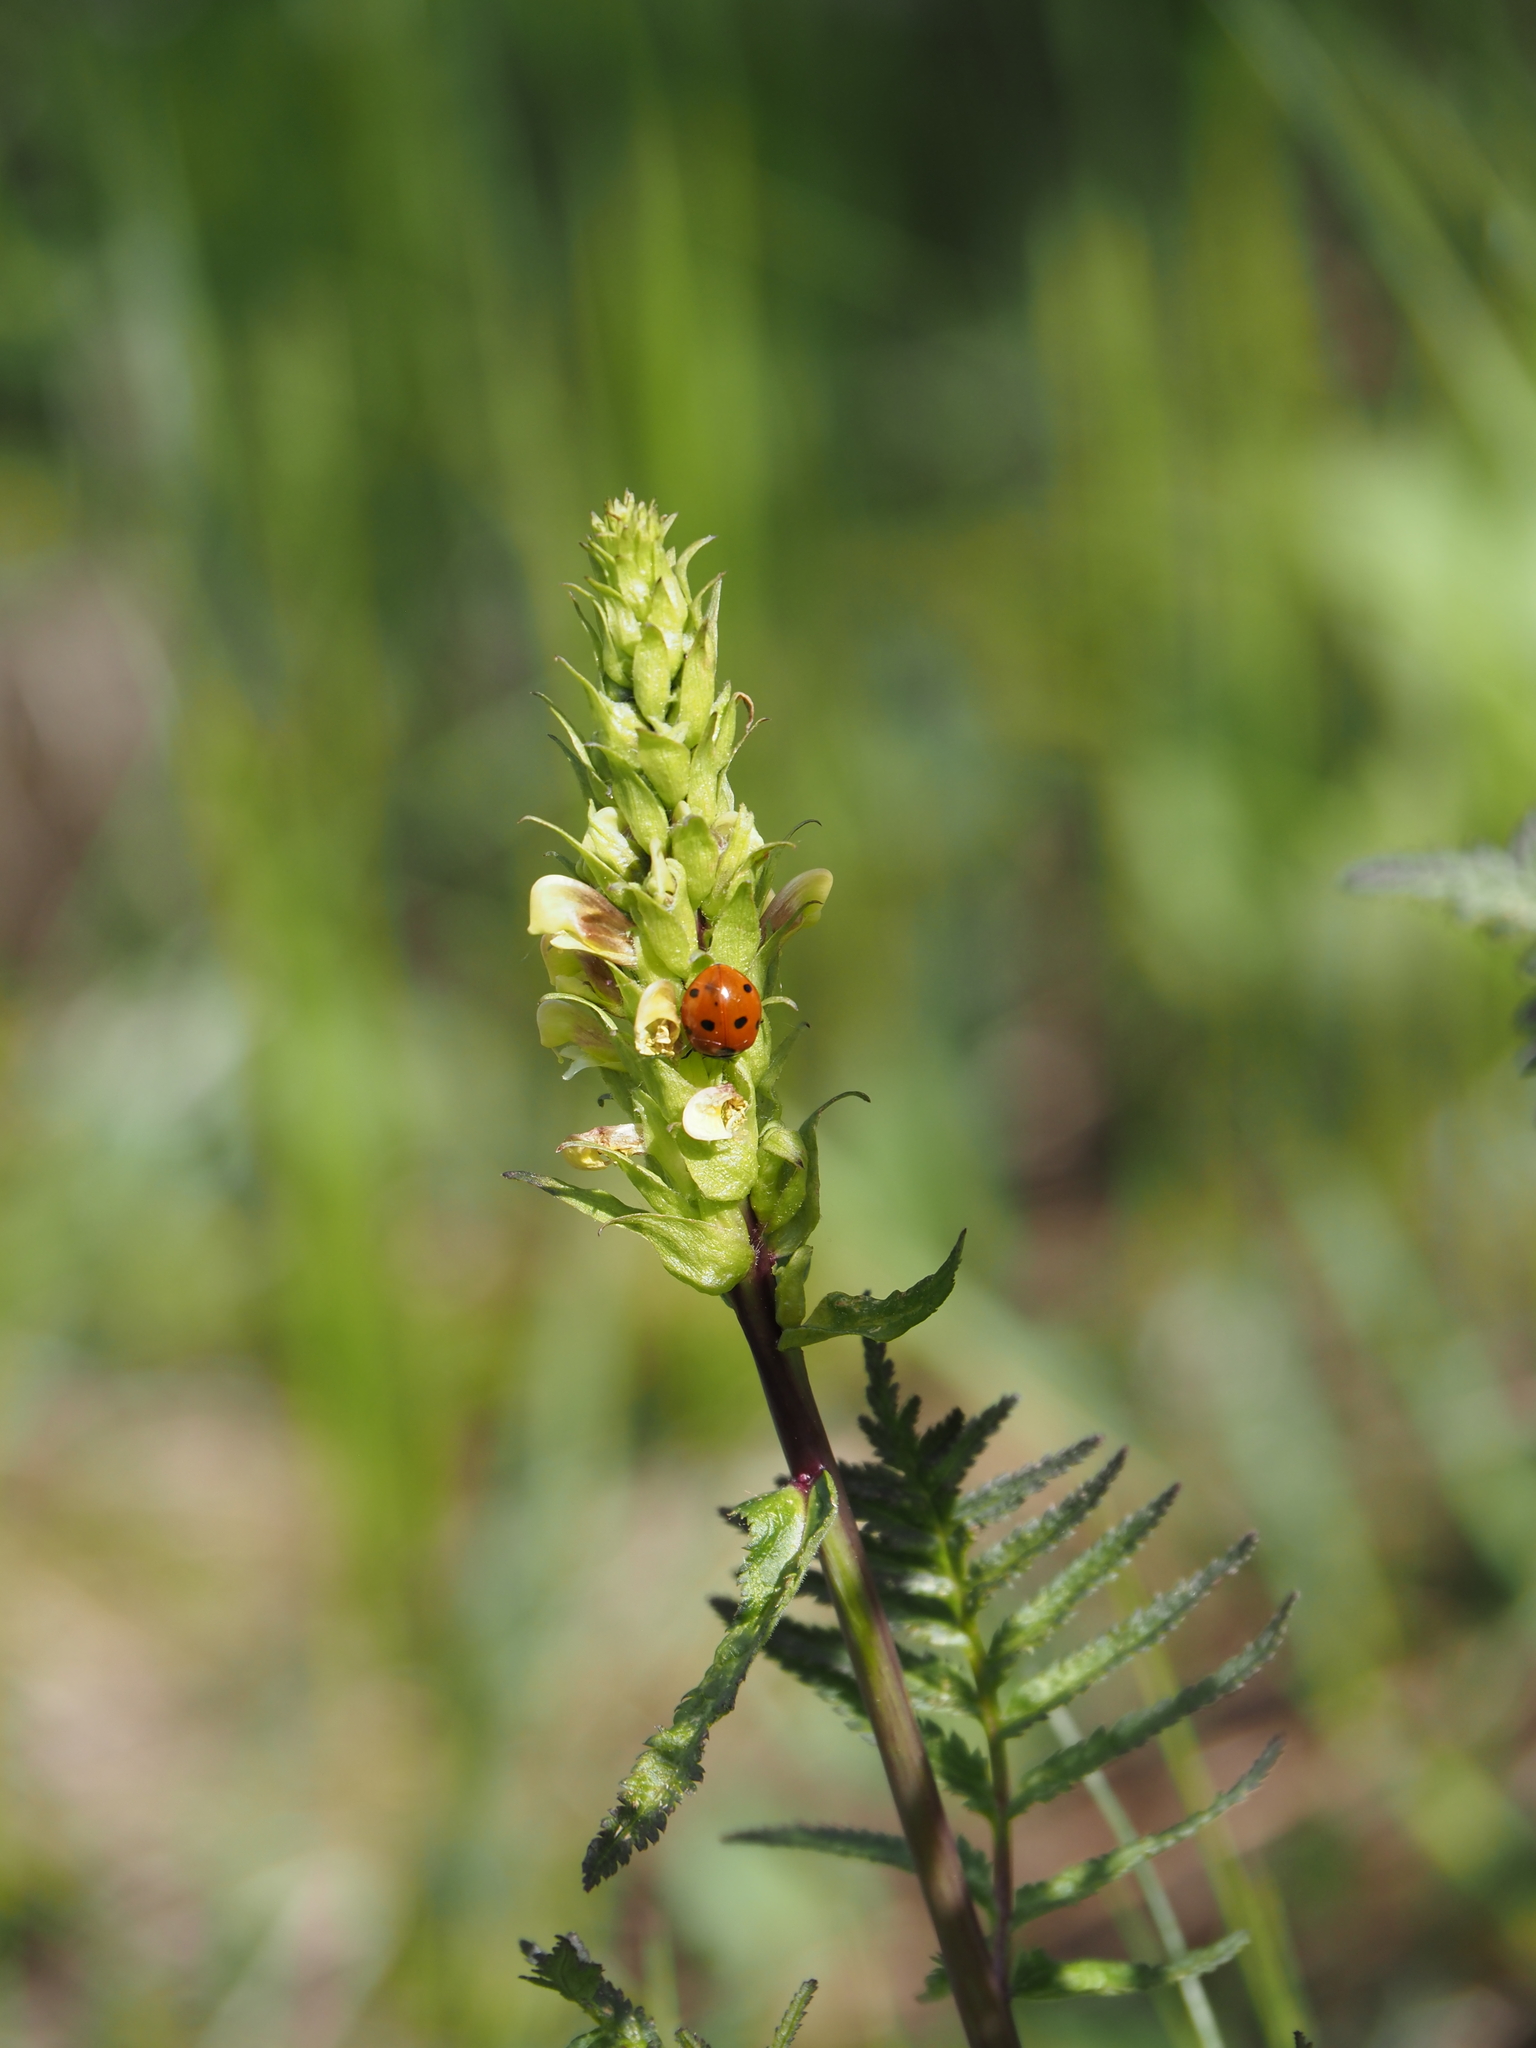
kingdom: Plantae
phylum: Tracheophyta
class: Magnoliopsida
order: Lamiales
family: Orobanchaceae
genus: Pedicularis
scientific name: Pedicularis bracteosa
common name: Bracted lousewort
